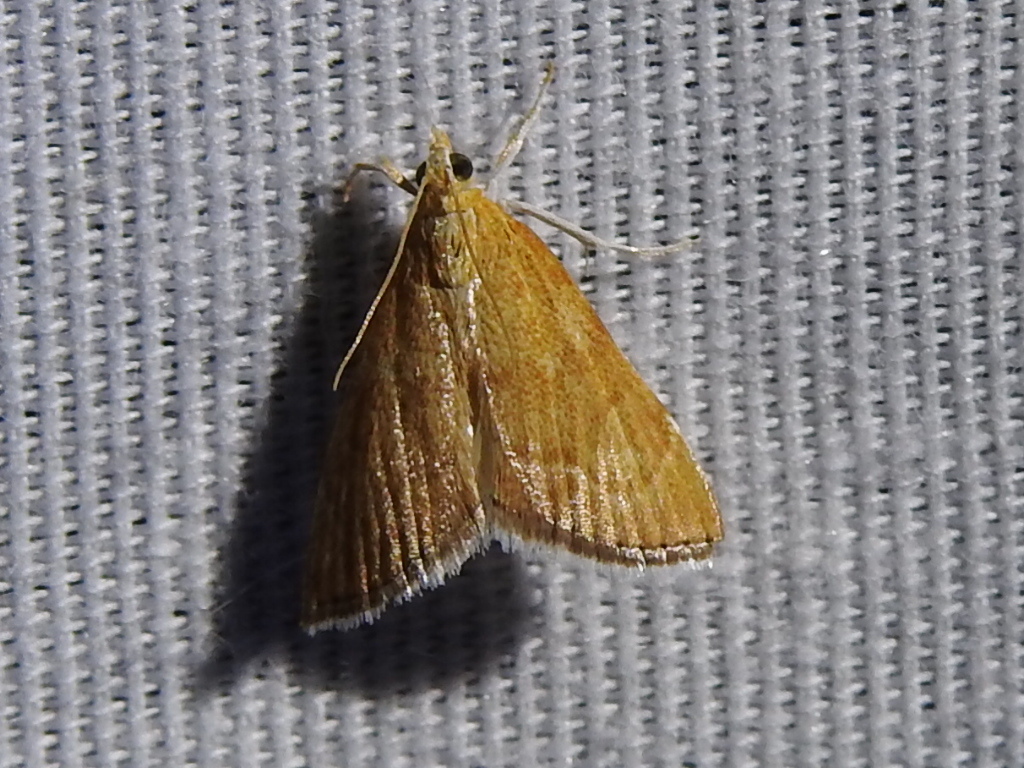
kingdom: Animalia
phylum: Arthropoda
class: Insecta
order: Lepidoptera
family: Crambidae
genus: Glaphyria
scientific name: Glaphyria invisalis
